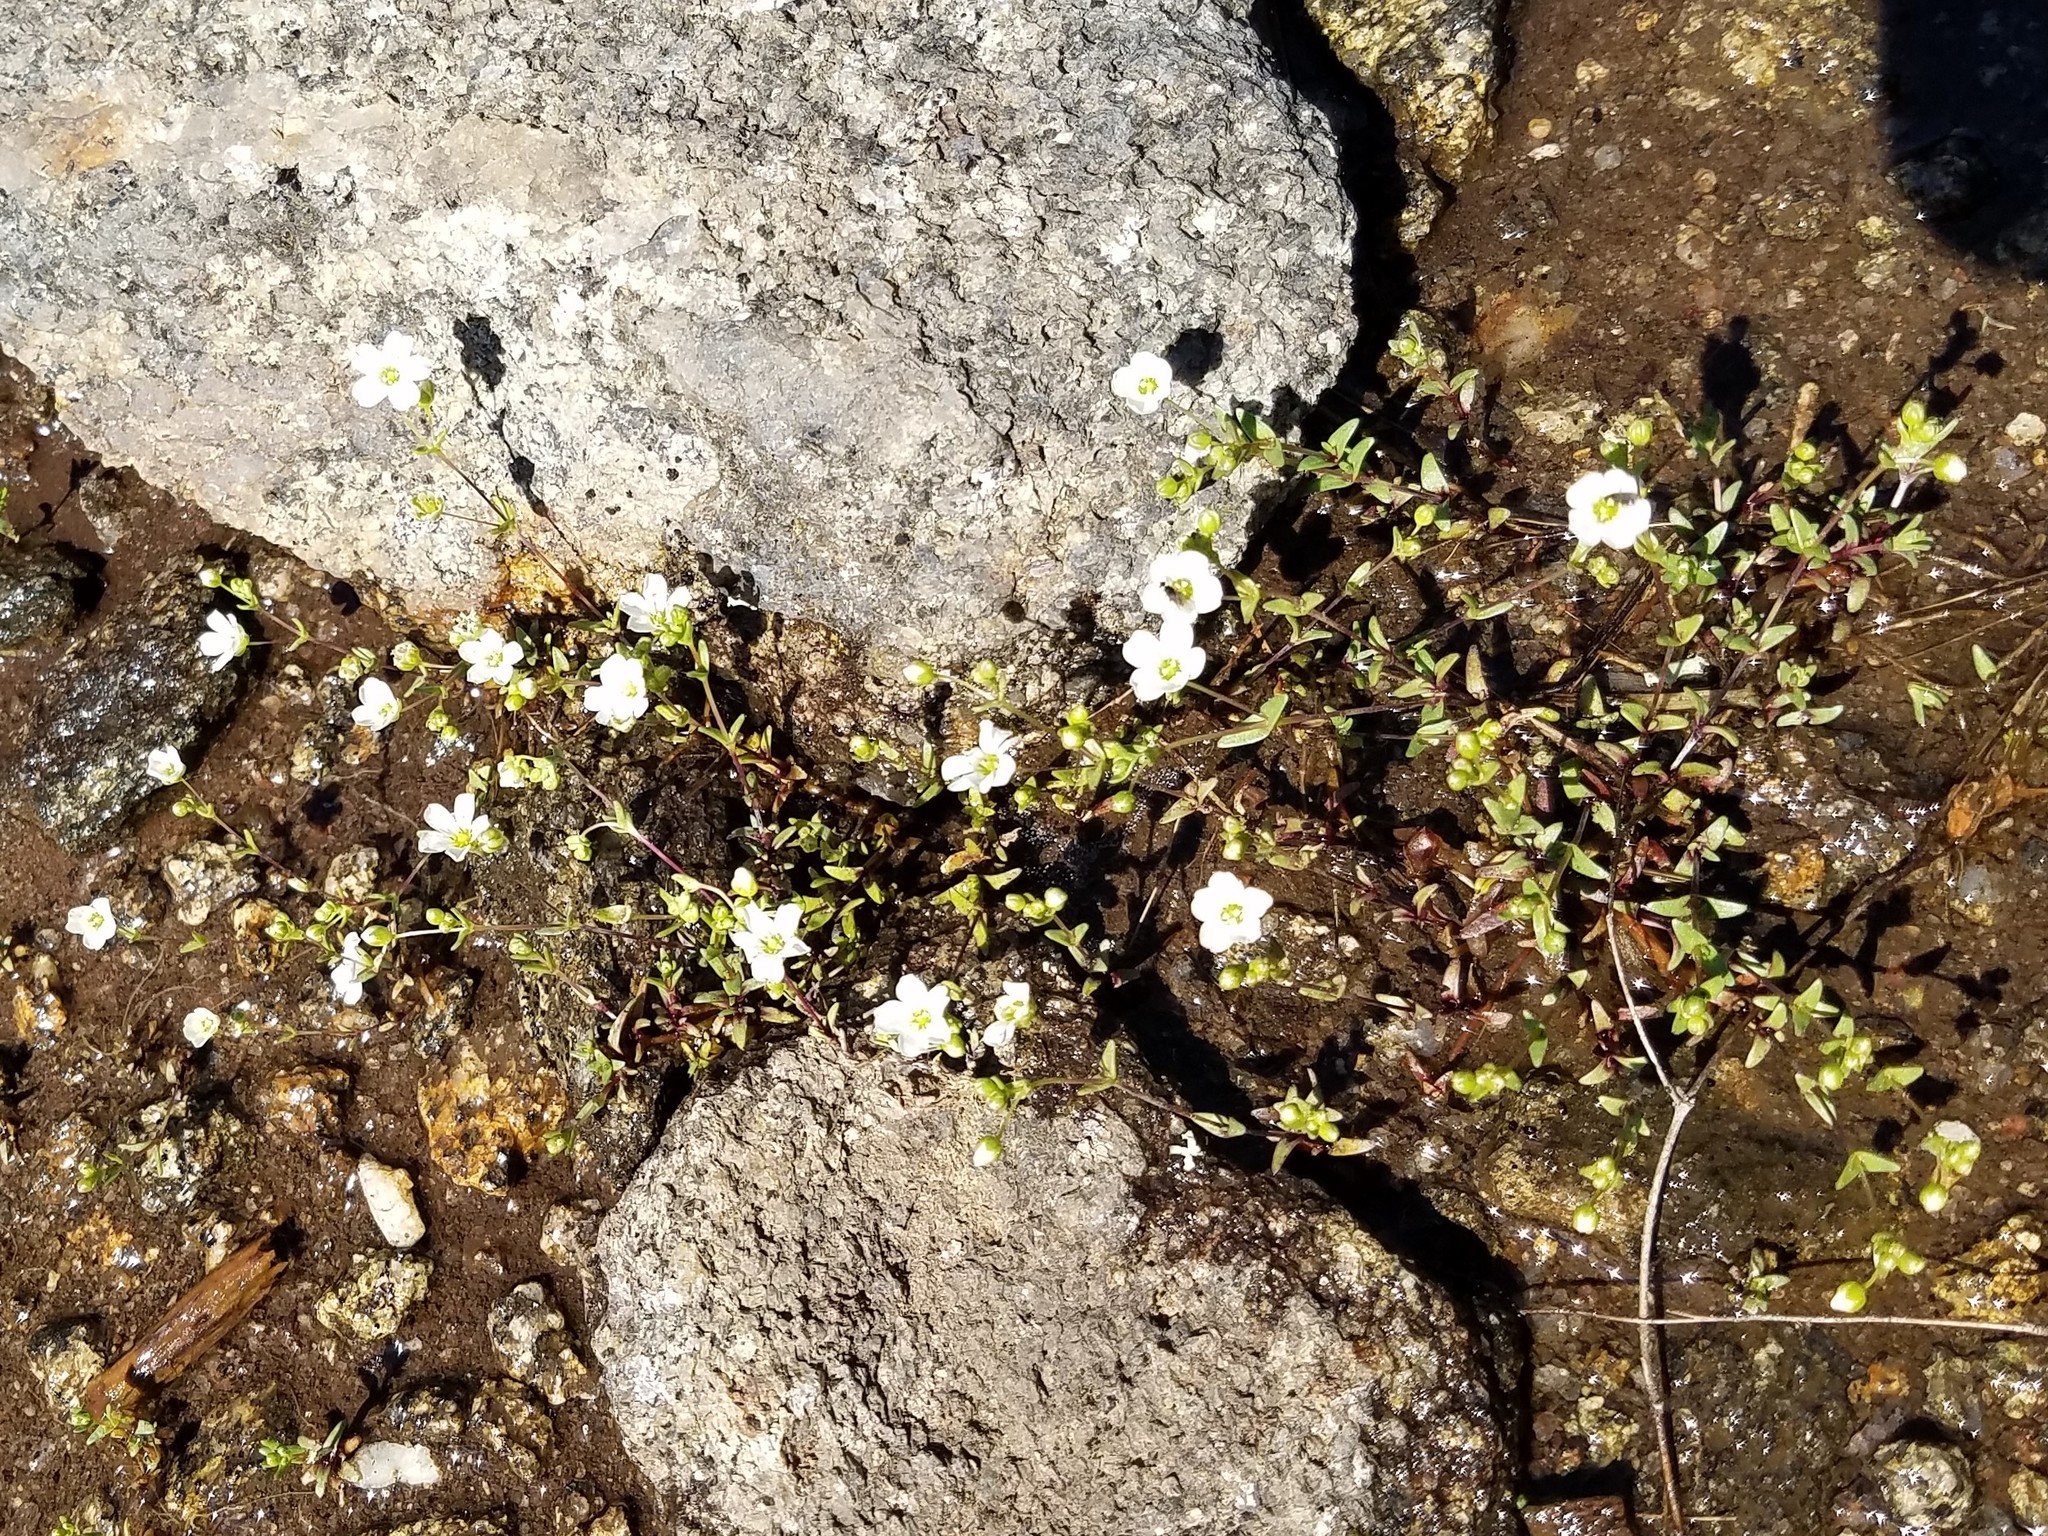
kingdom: Plantae
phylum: Tracheophyta
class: Magnoliopsida
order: Caryophyllales
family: Caryophyllaceae
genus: Geocarpon
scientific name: Geocarpon uniflorum
